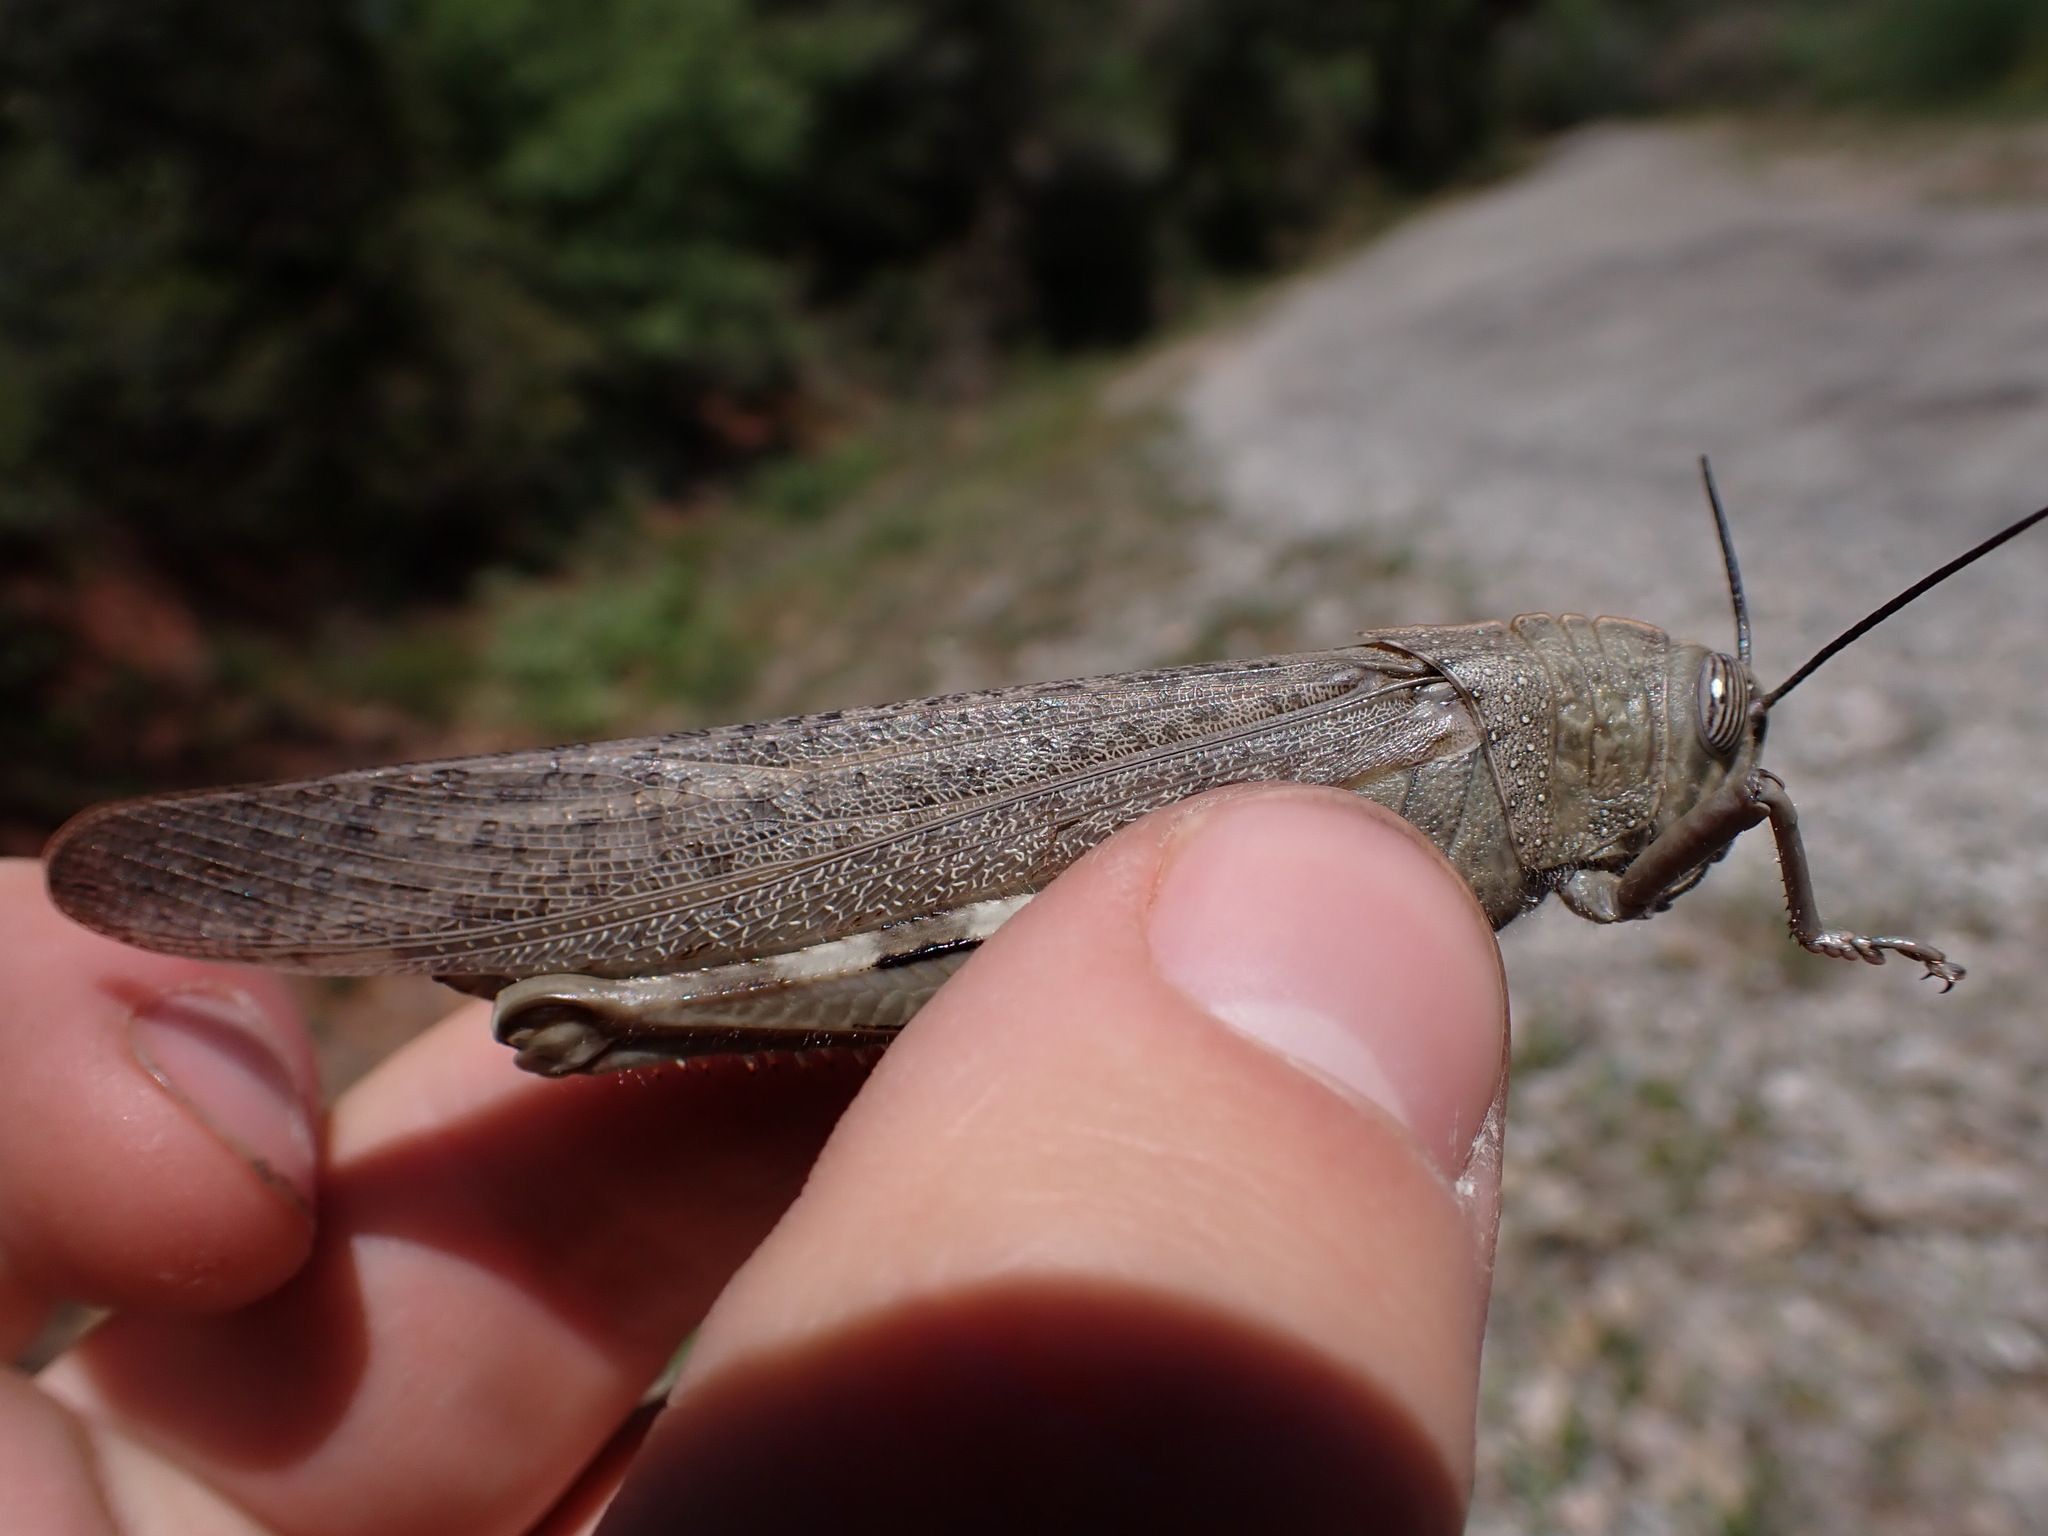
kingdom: Animalia
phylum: Arthropoda
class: Insecta
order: Orthoptera
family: Acrididae
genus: Anacridium
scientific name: Anacridium aegyptium
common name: Egyptian grasshopper
